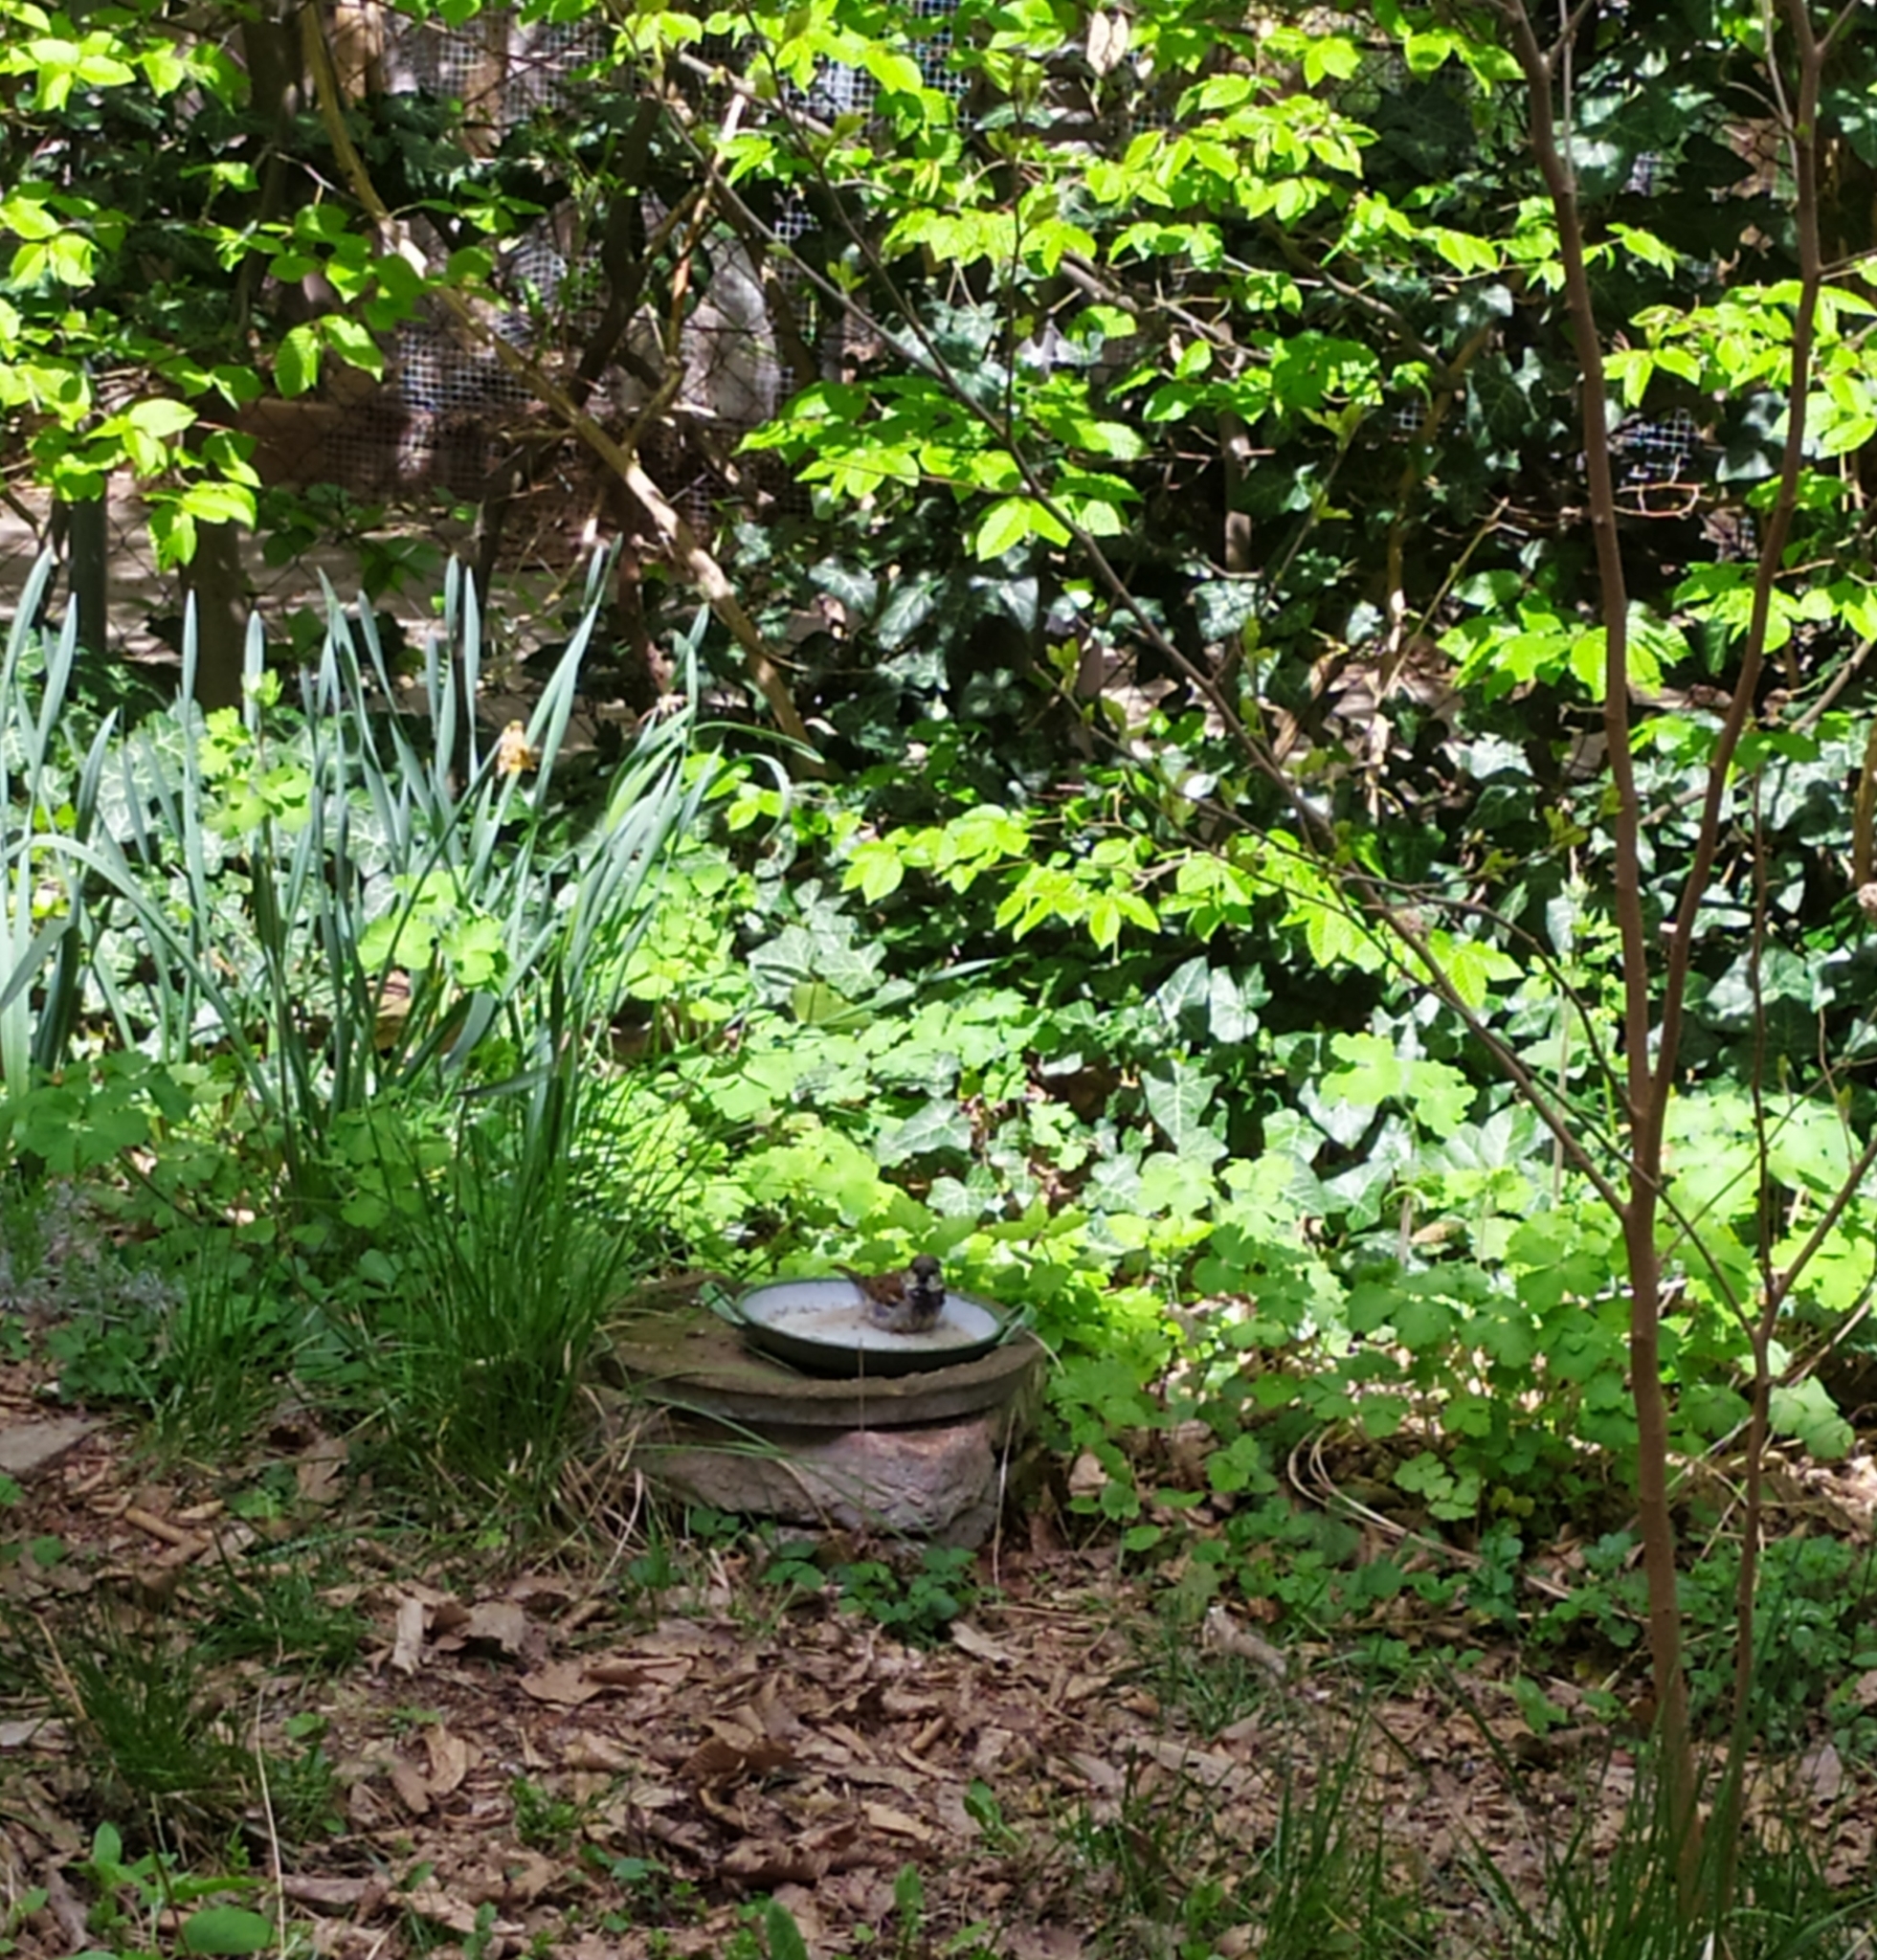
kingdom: Animalia
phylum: Chordata
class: Aves
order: Passeriformes
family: Passeridae
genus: Passer
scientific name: Passer domesticus
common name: House sparrow
